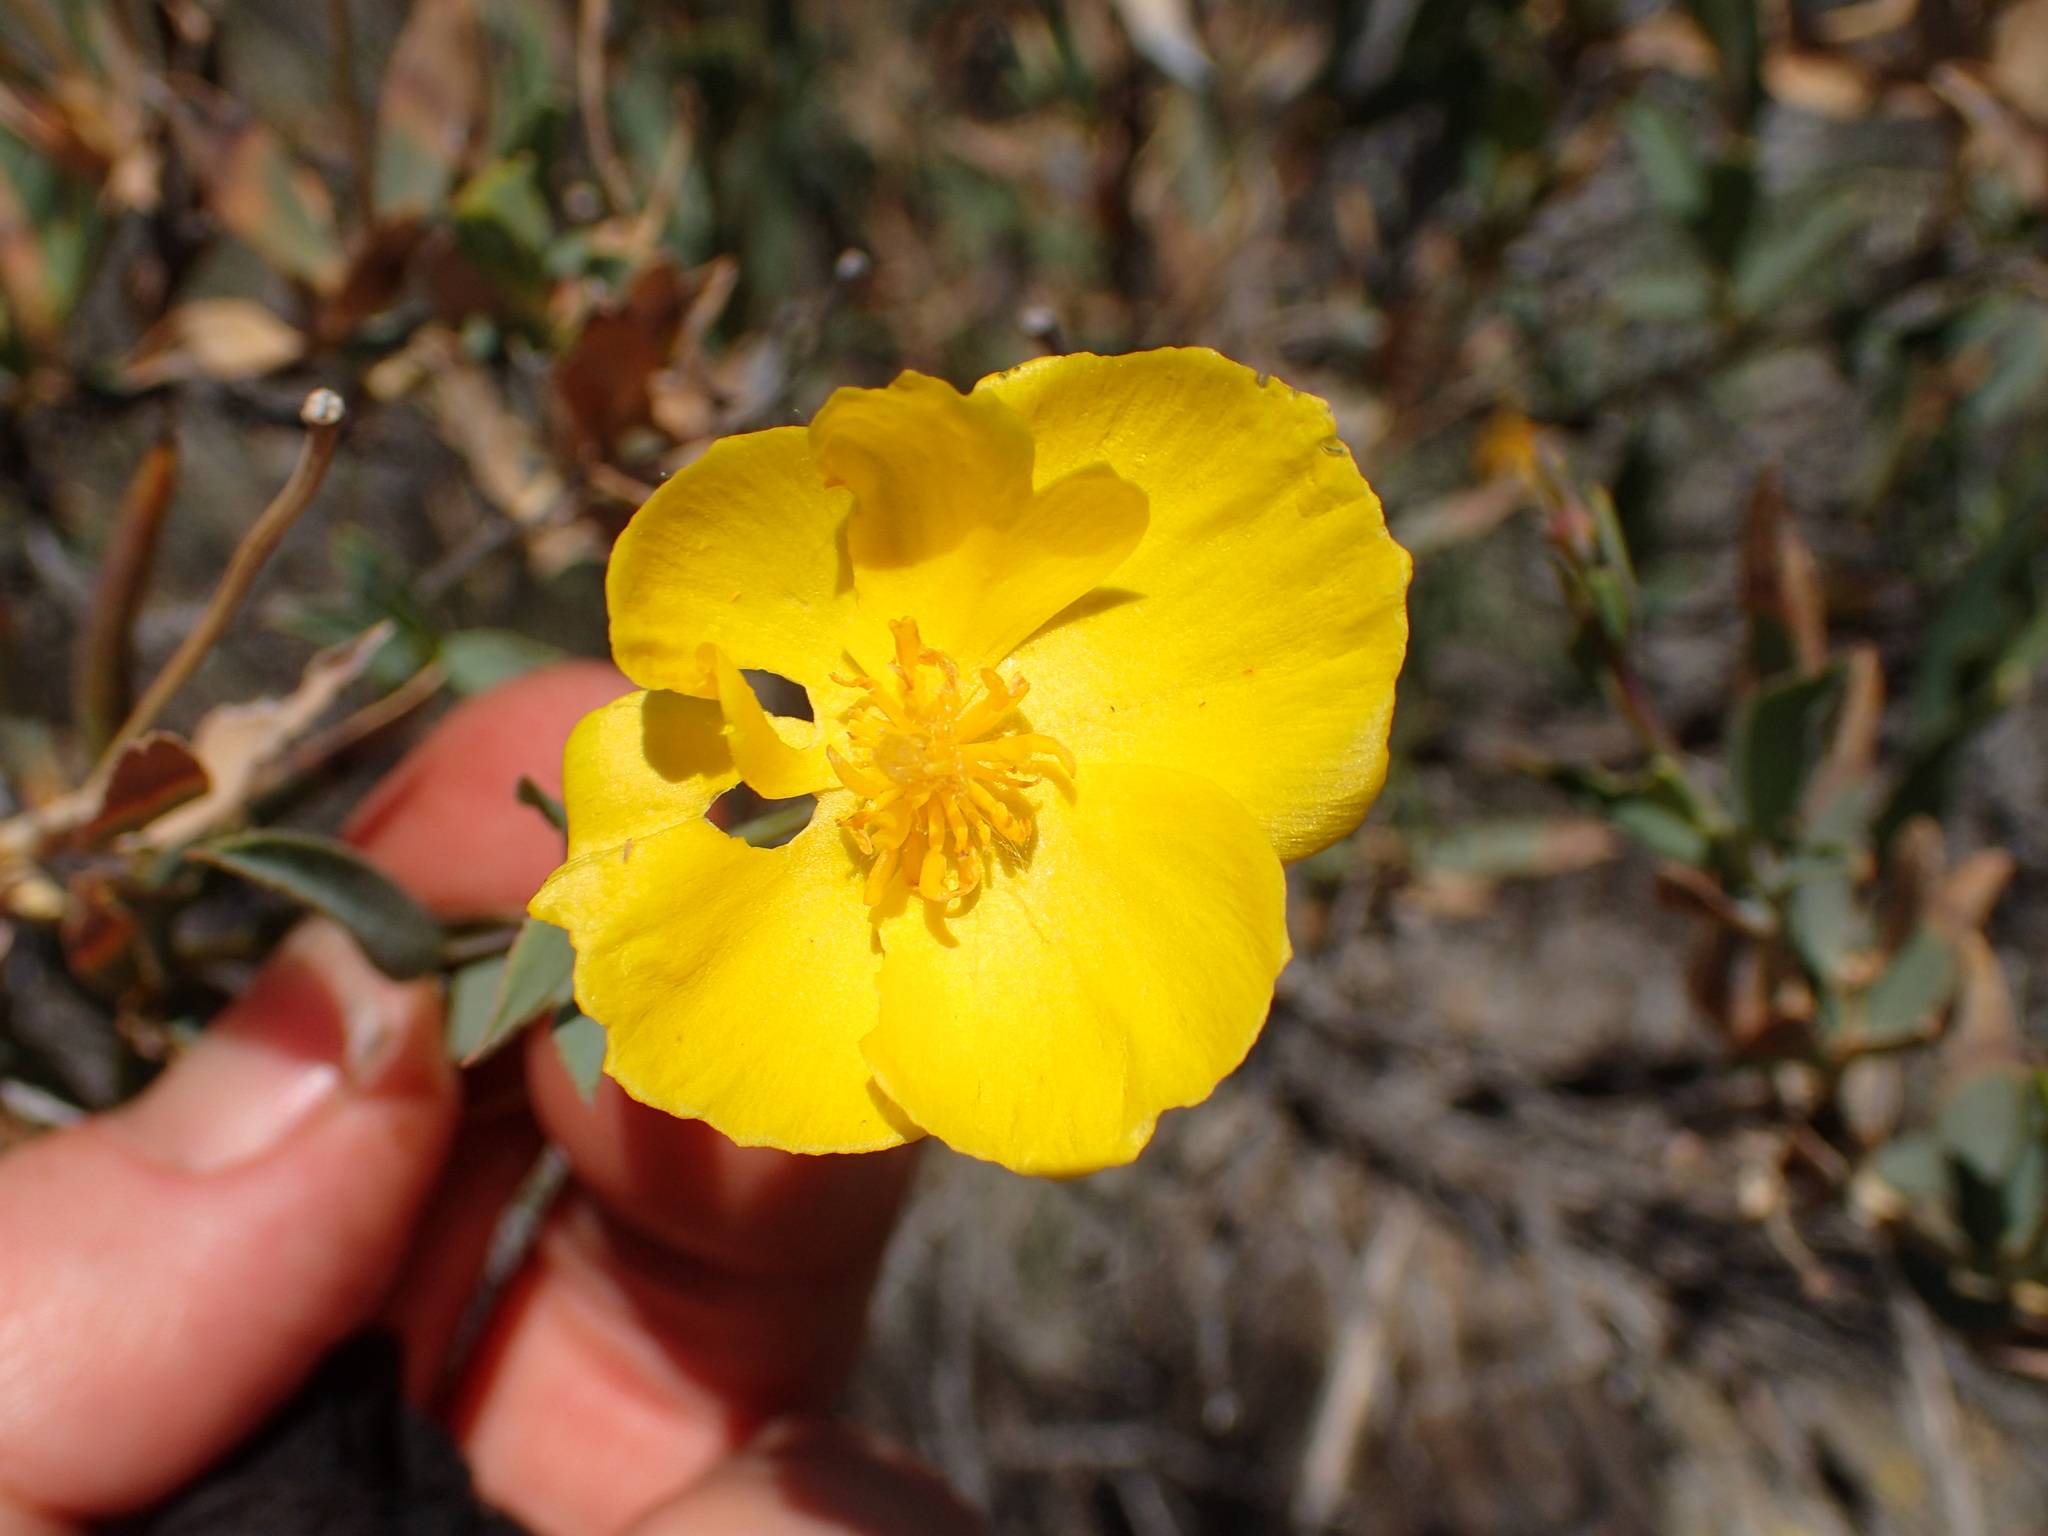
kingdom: Plantae
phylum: Tracheophyta
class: Magnoliopsida
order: Ranunculales
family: Papaveraceae
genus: Dendromecon
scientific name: Dendromecon rigida
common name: Tree poppy
